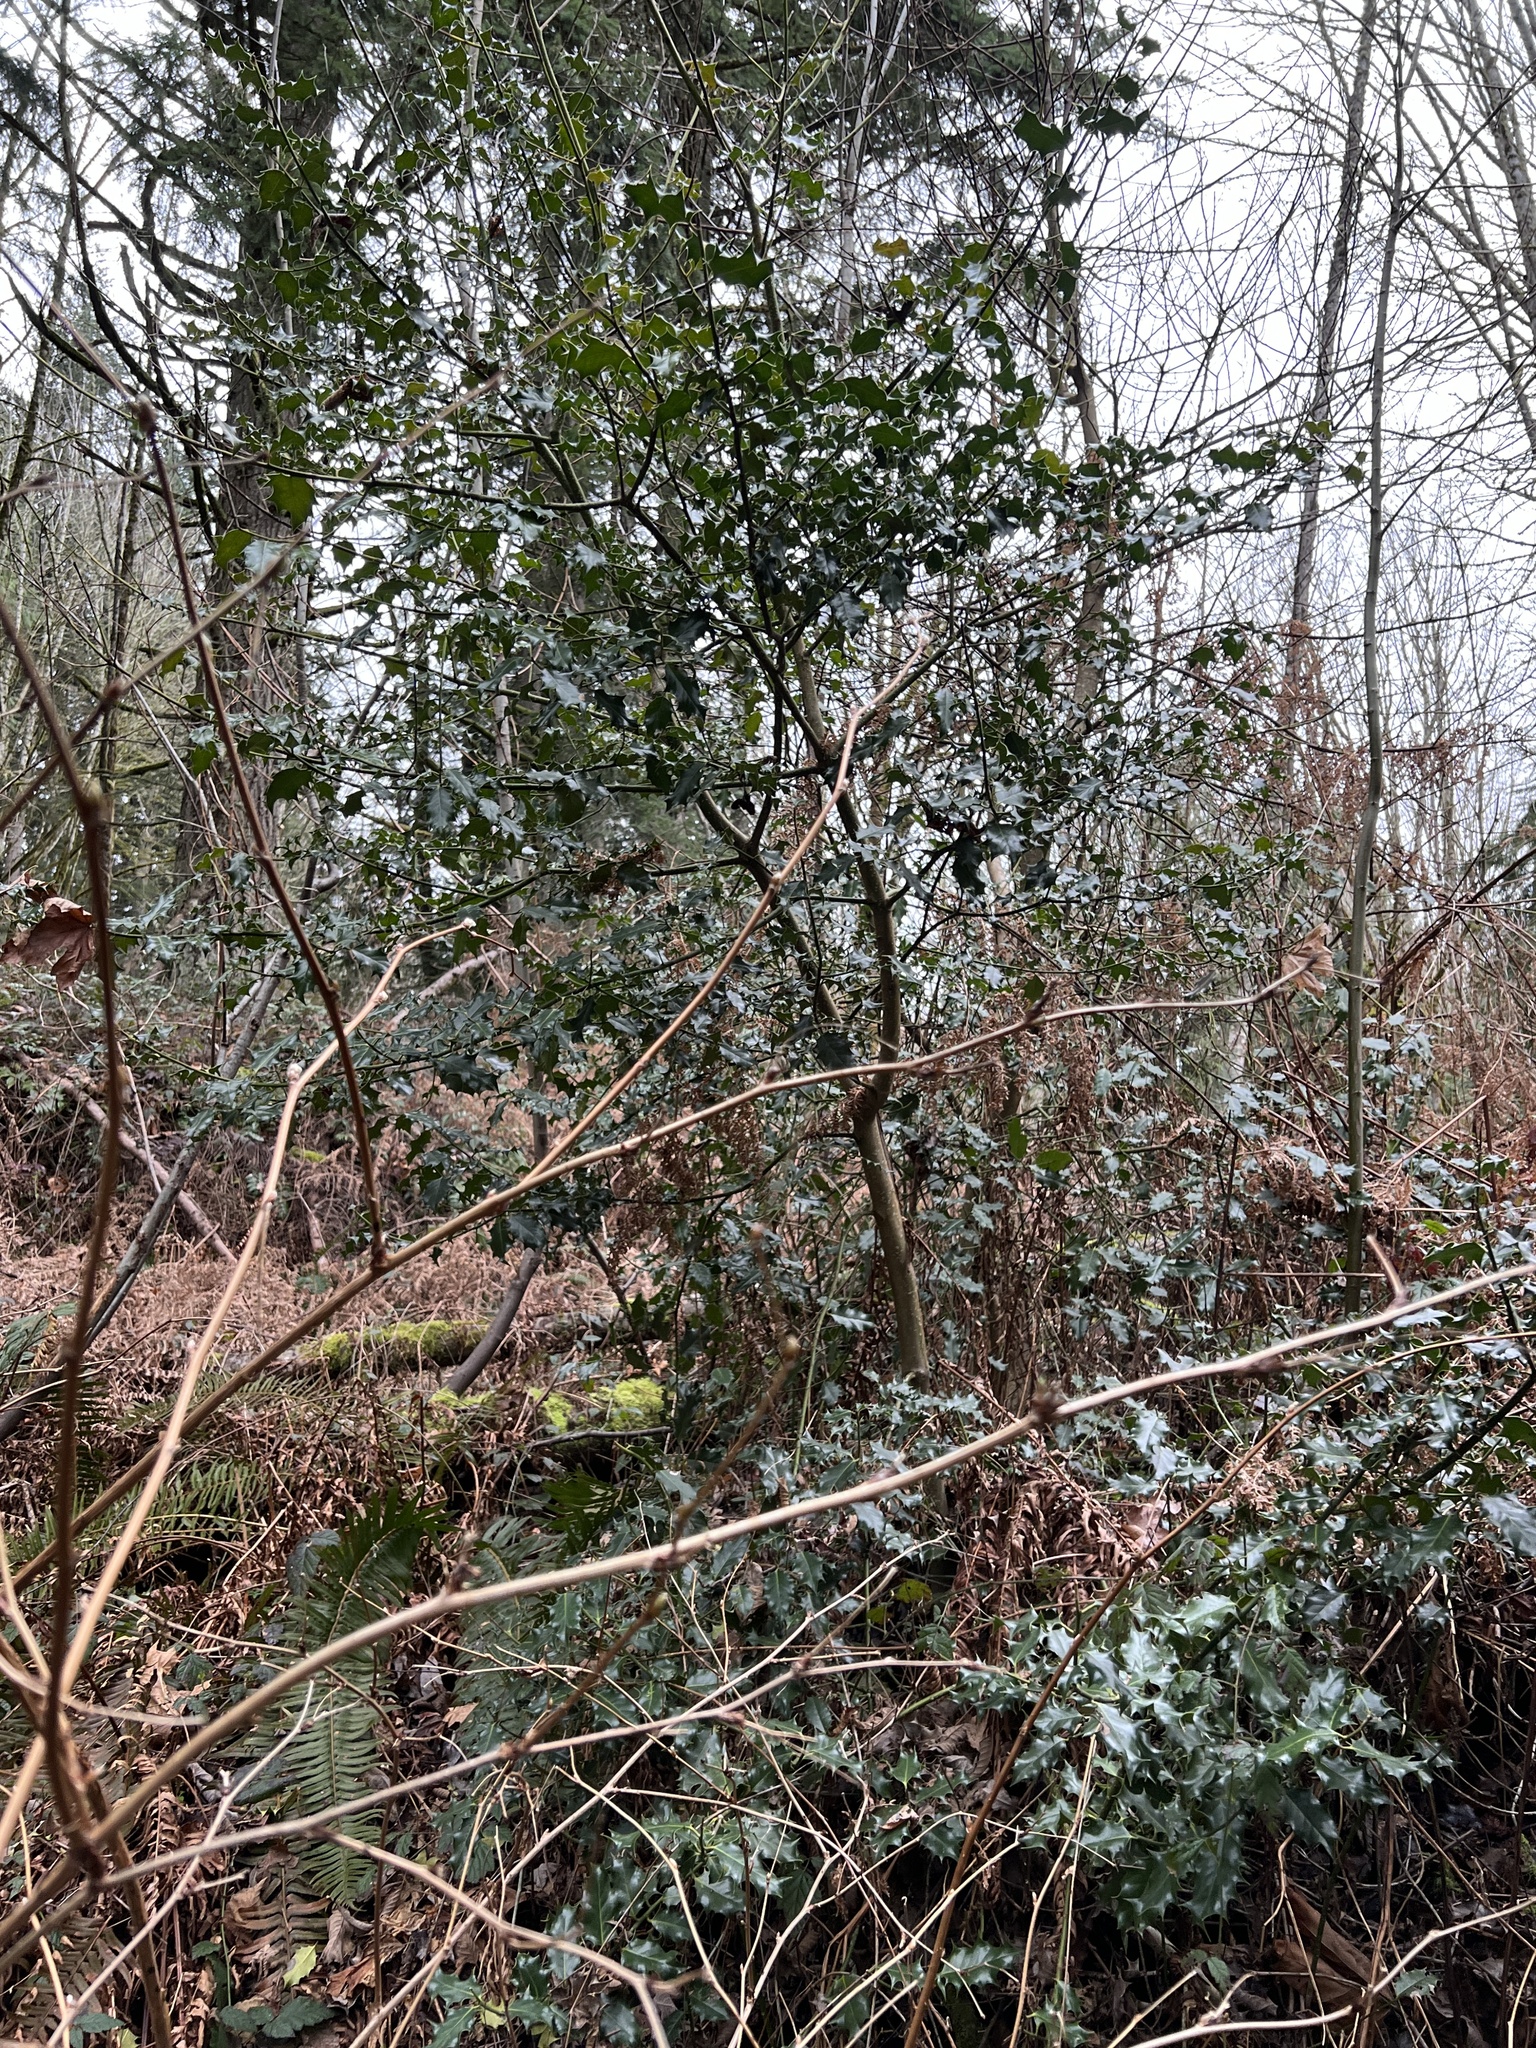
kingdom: Plantae
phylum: Tracheophyta
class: Magnoliopsida
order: Aquifoliales
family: Aquifoliaceae
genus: Ilex
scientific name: Ilex aquifolium
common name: English holly
